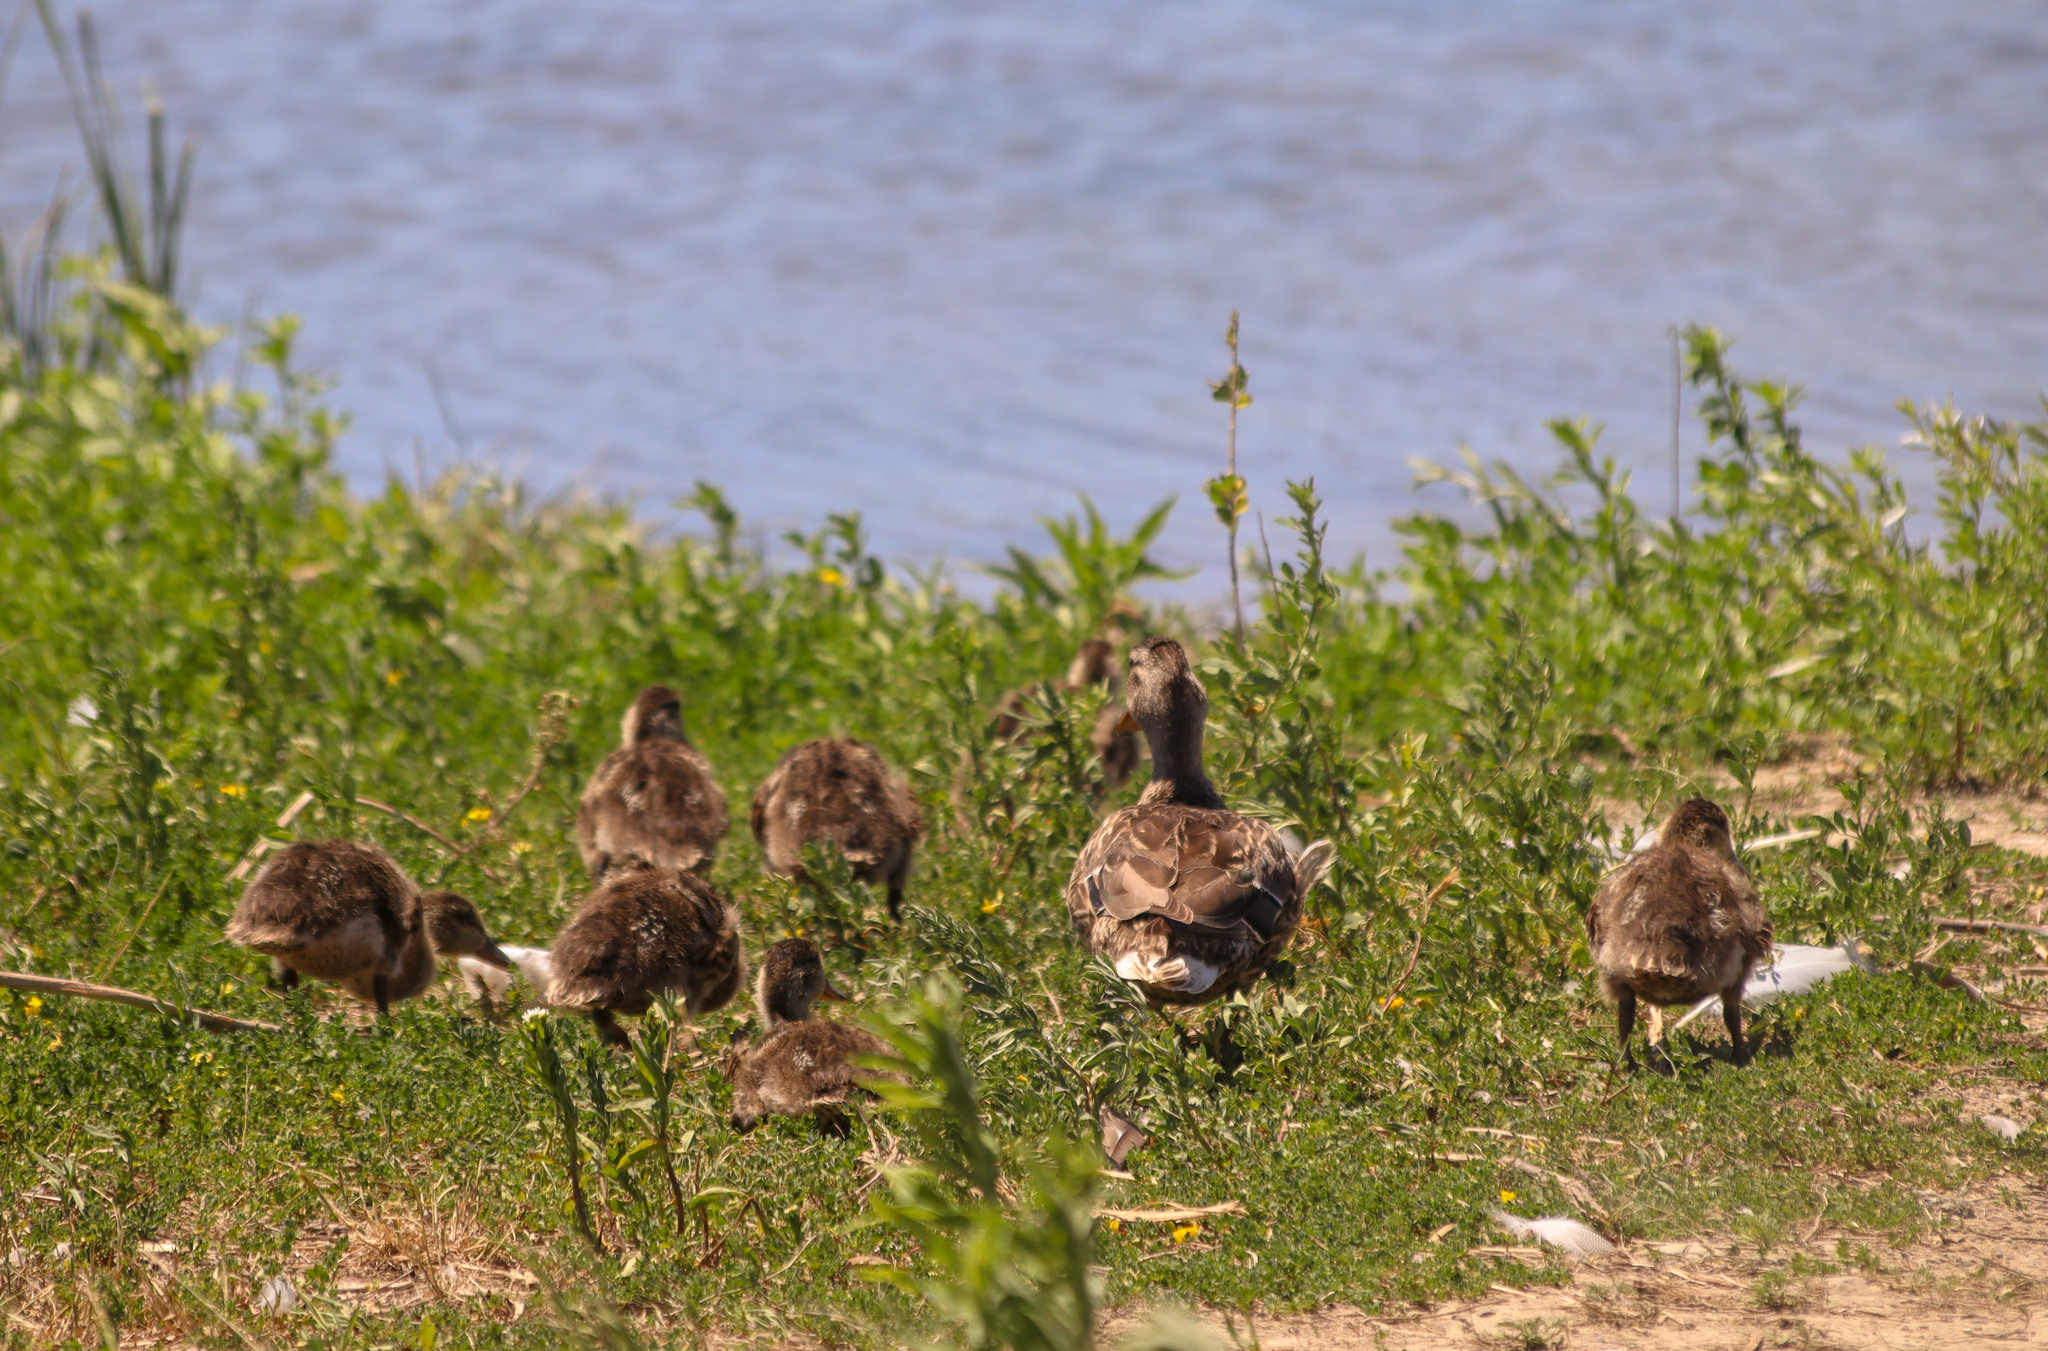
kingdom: Animalia
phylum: Chordata
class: Aves
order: Anseriformes
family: Anatidae
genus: Anas
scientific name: Anas platyrhynchos
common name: Mallard
